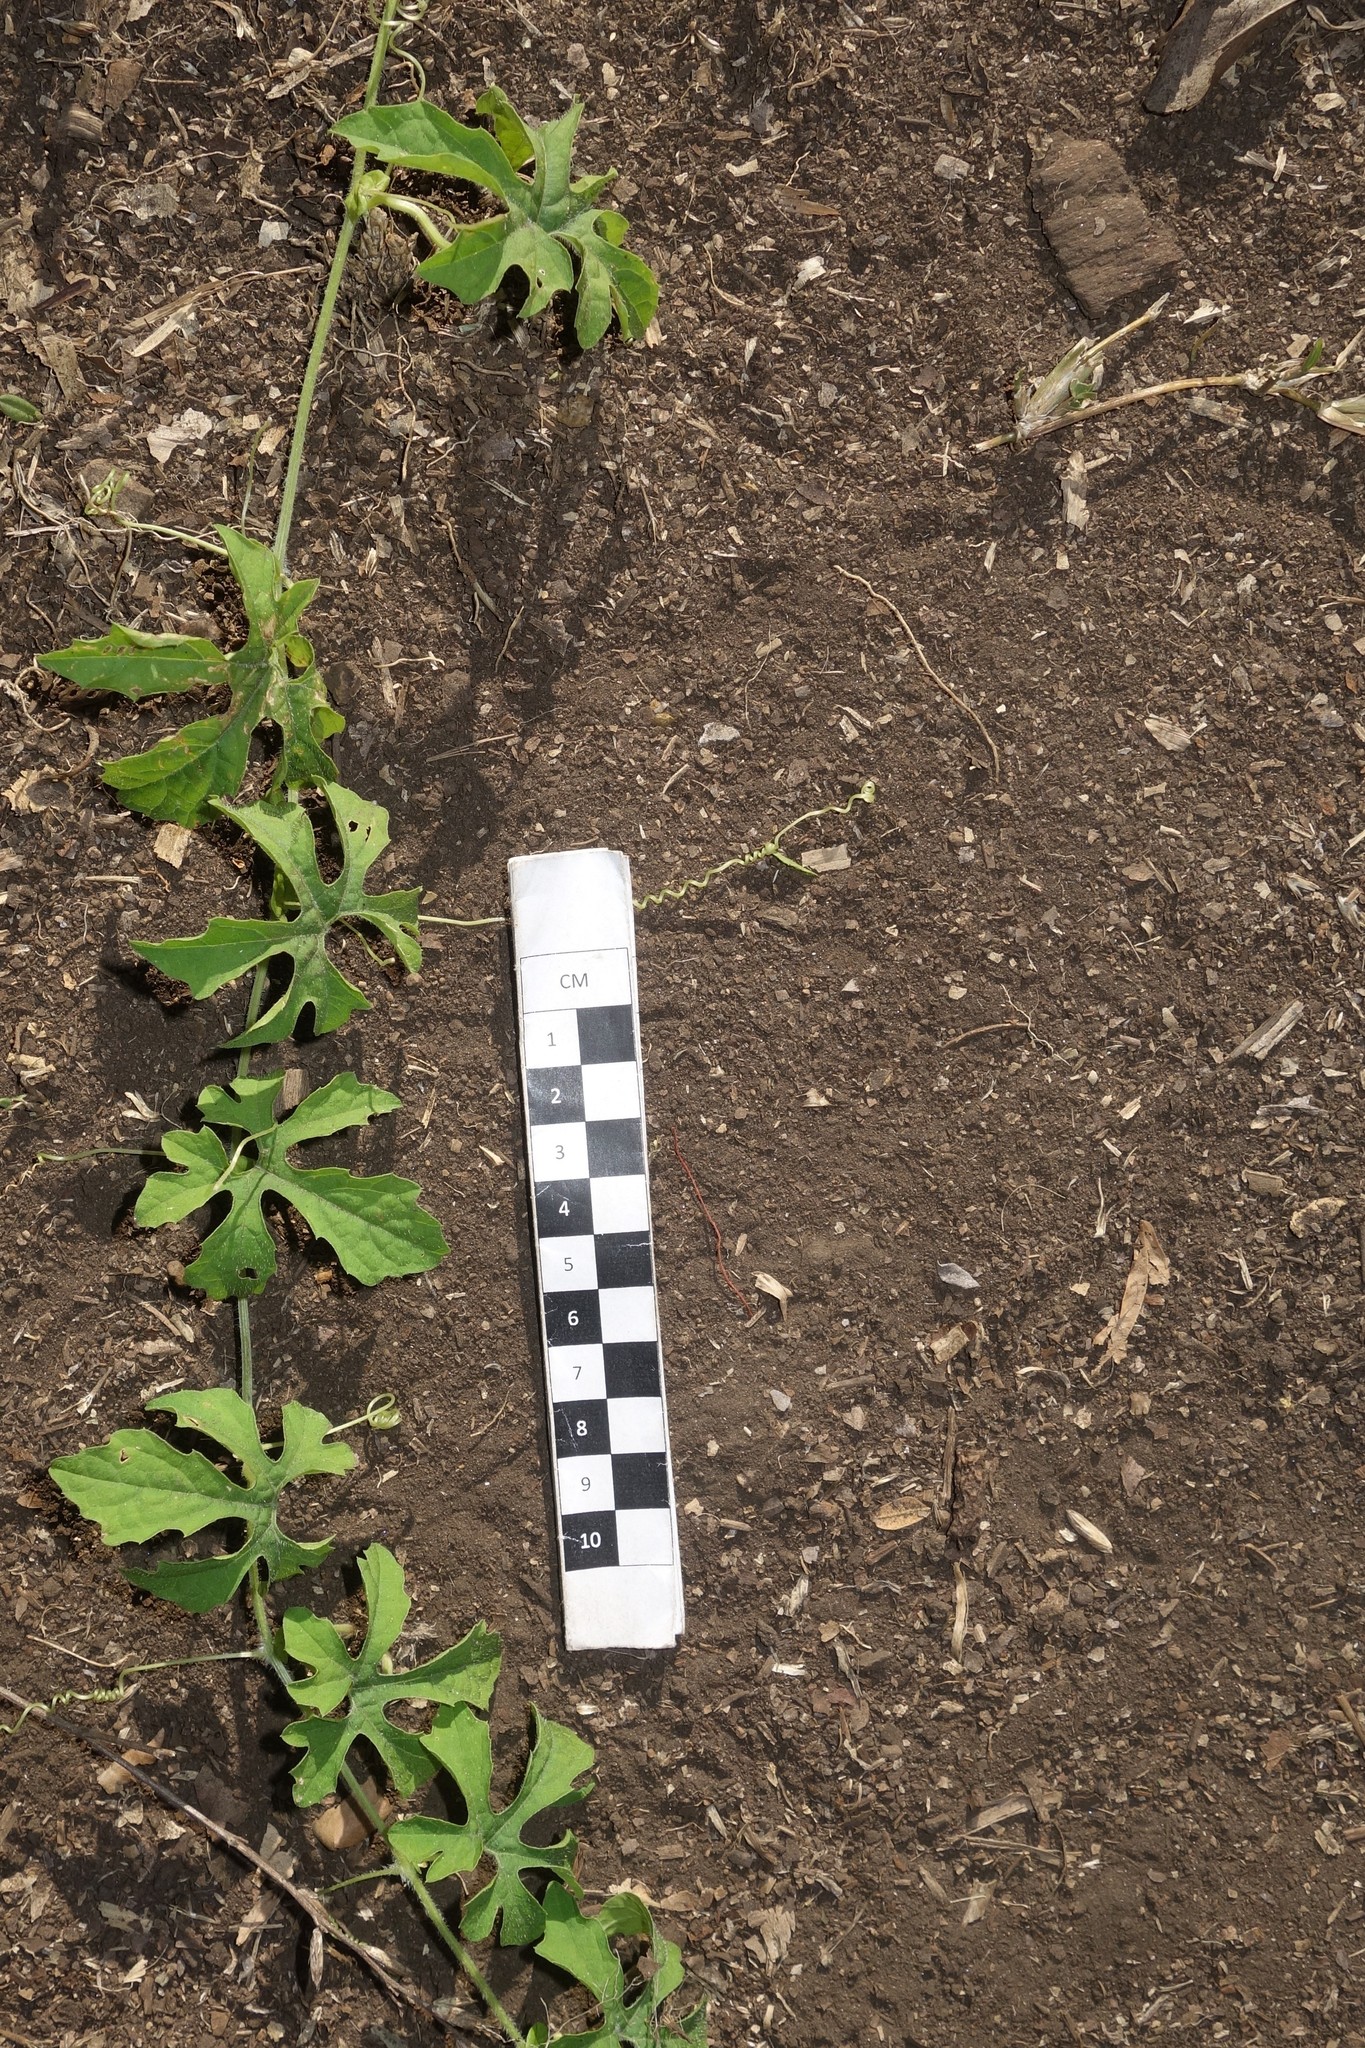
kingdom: Plantae
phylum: Tracheophyta
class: Magnoliopsida
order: Cucurbitales
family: Cucurbitaceae
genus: Momordica
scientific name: Momordica charantia
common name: Balsampear
